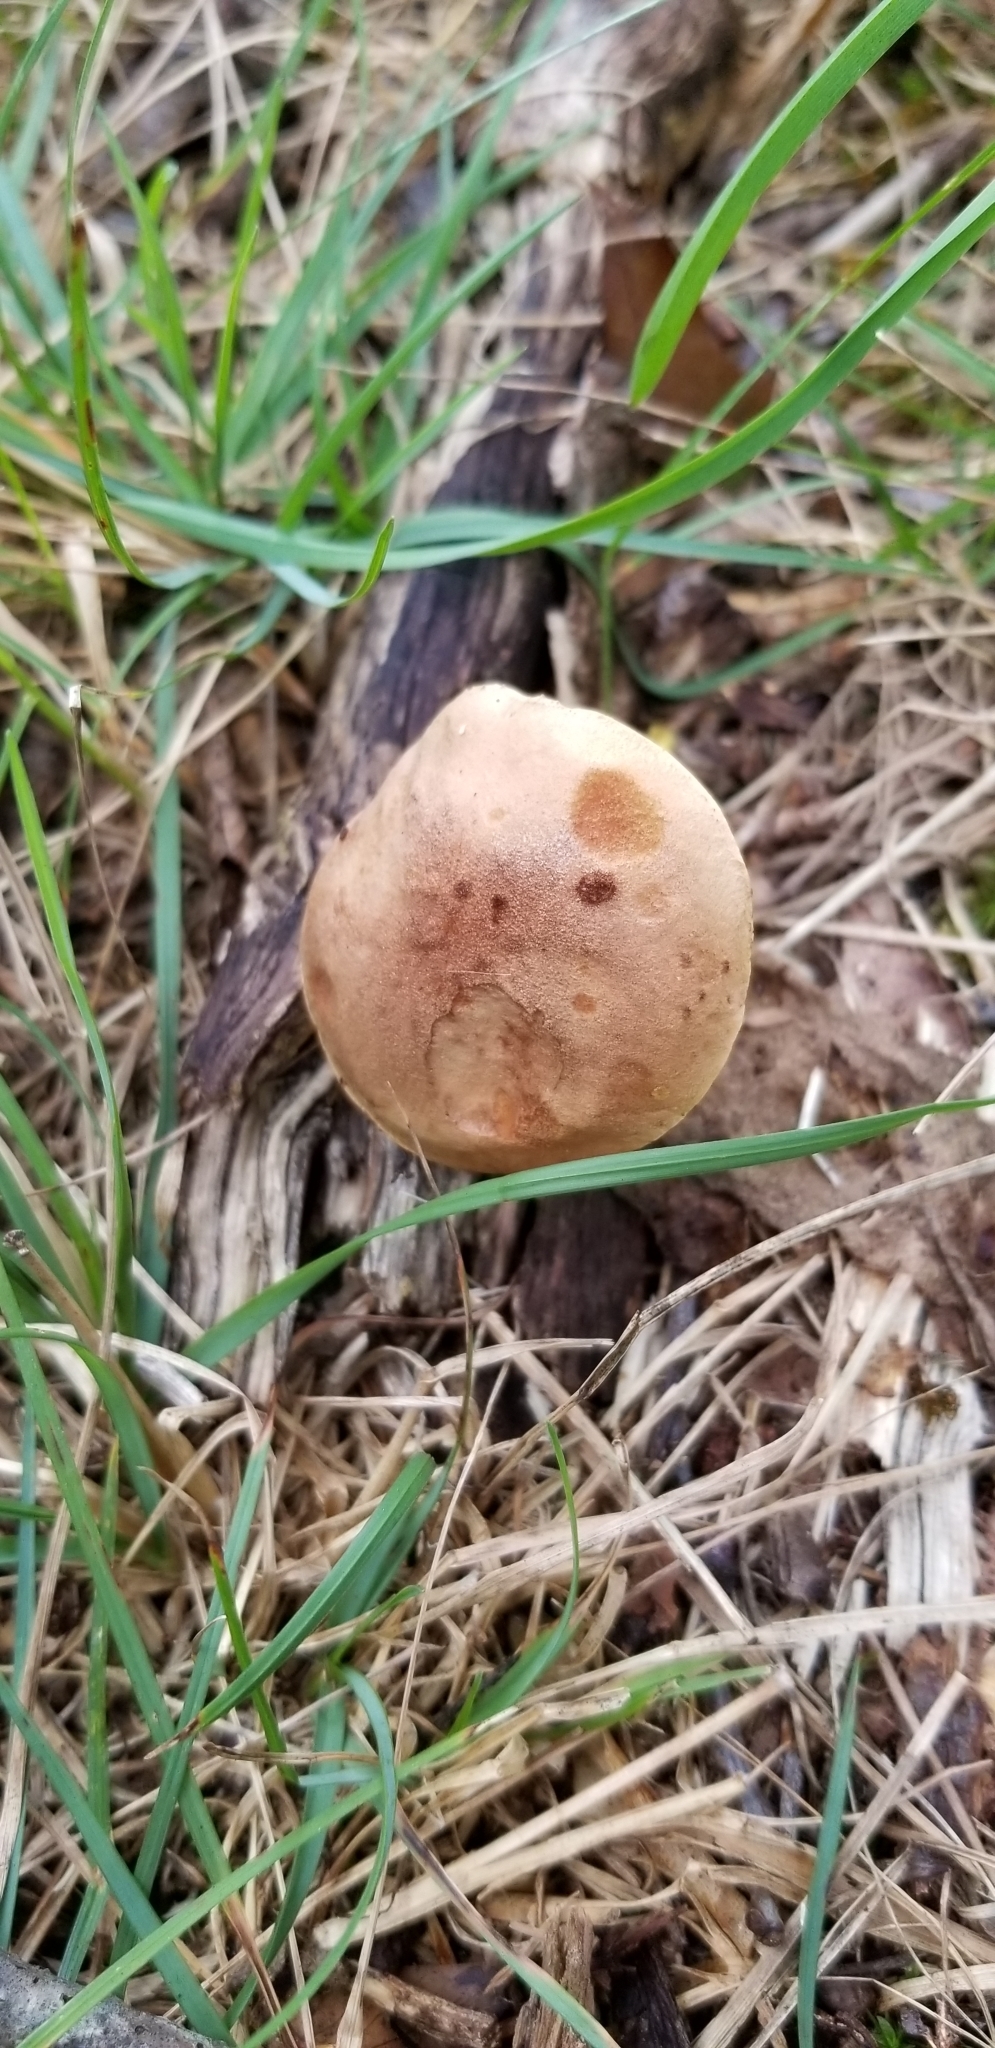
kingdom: Fungi
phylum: Basidiomycota
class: Agaricomycetes
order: Boletales
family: Boletaceae
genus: Phylloporus
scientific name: Phylloporus rhodoxanthus
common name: Golden gilled bolete
